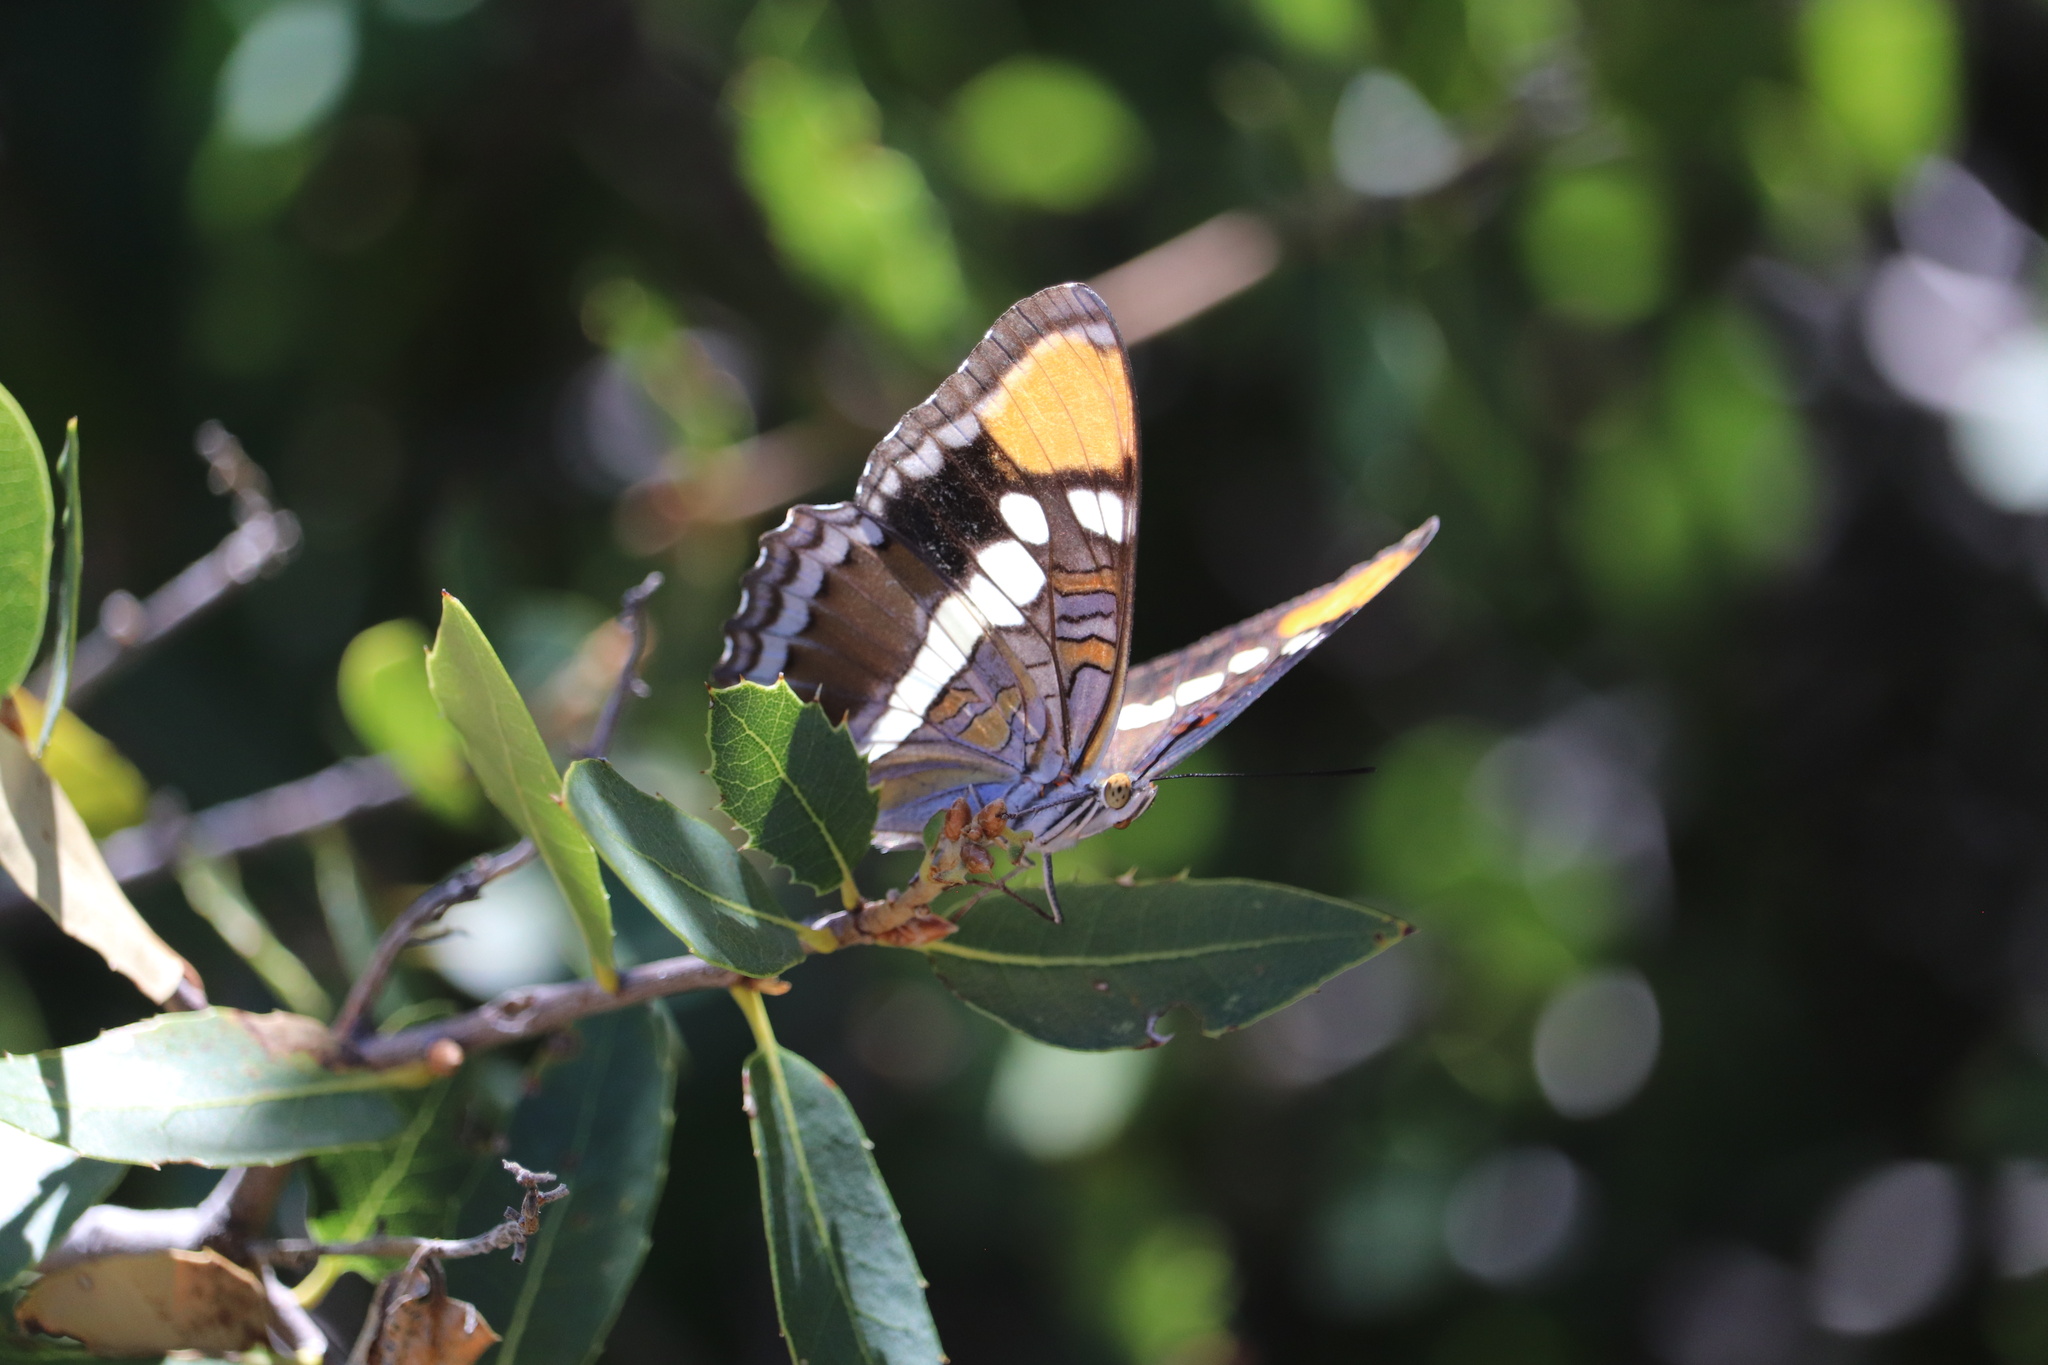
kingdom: Animalia
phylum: Arthropoda
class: Insecta
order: Lepidoptera
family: Nymphalidae
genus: Limenitis
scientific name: Limenitis bredowii
